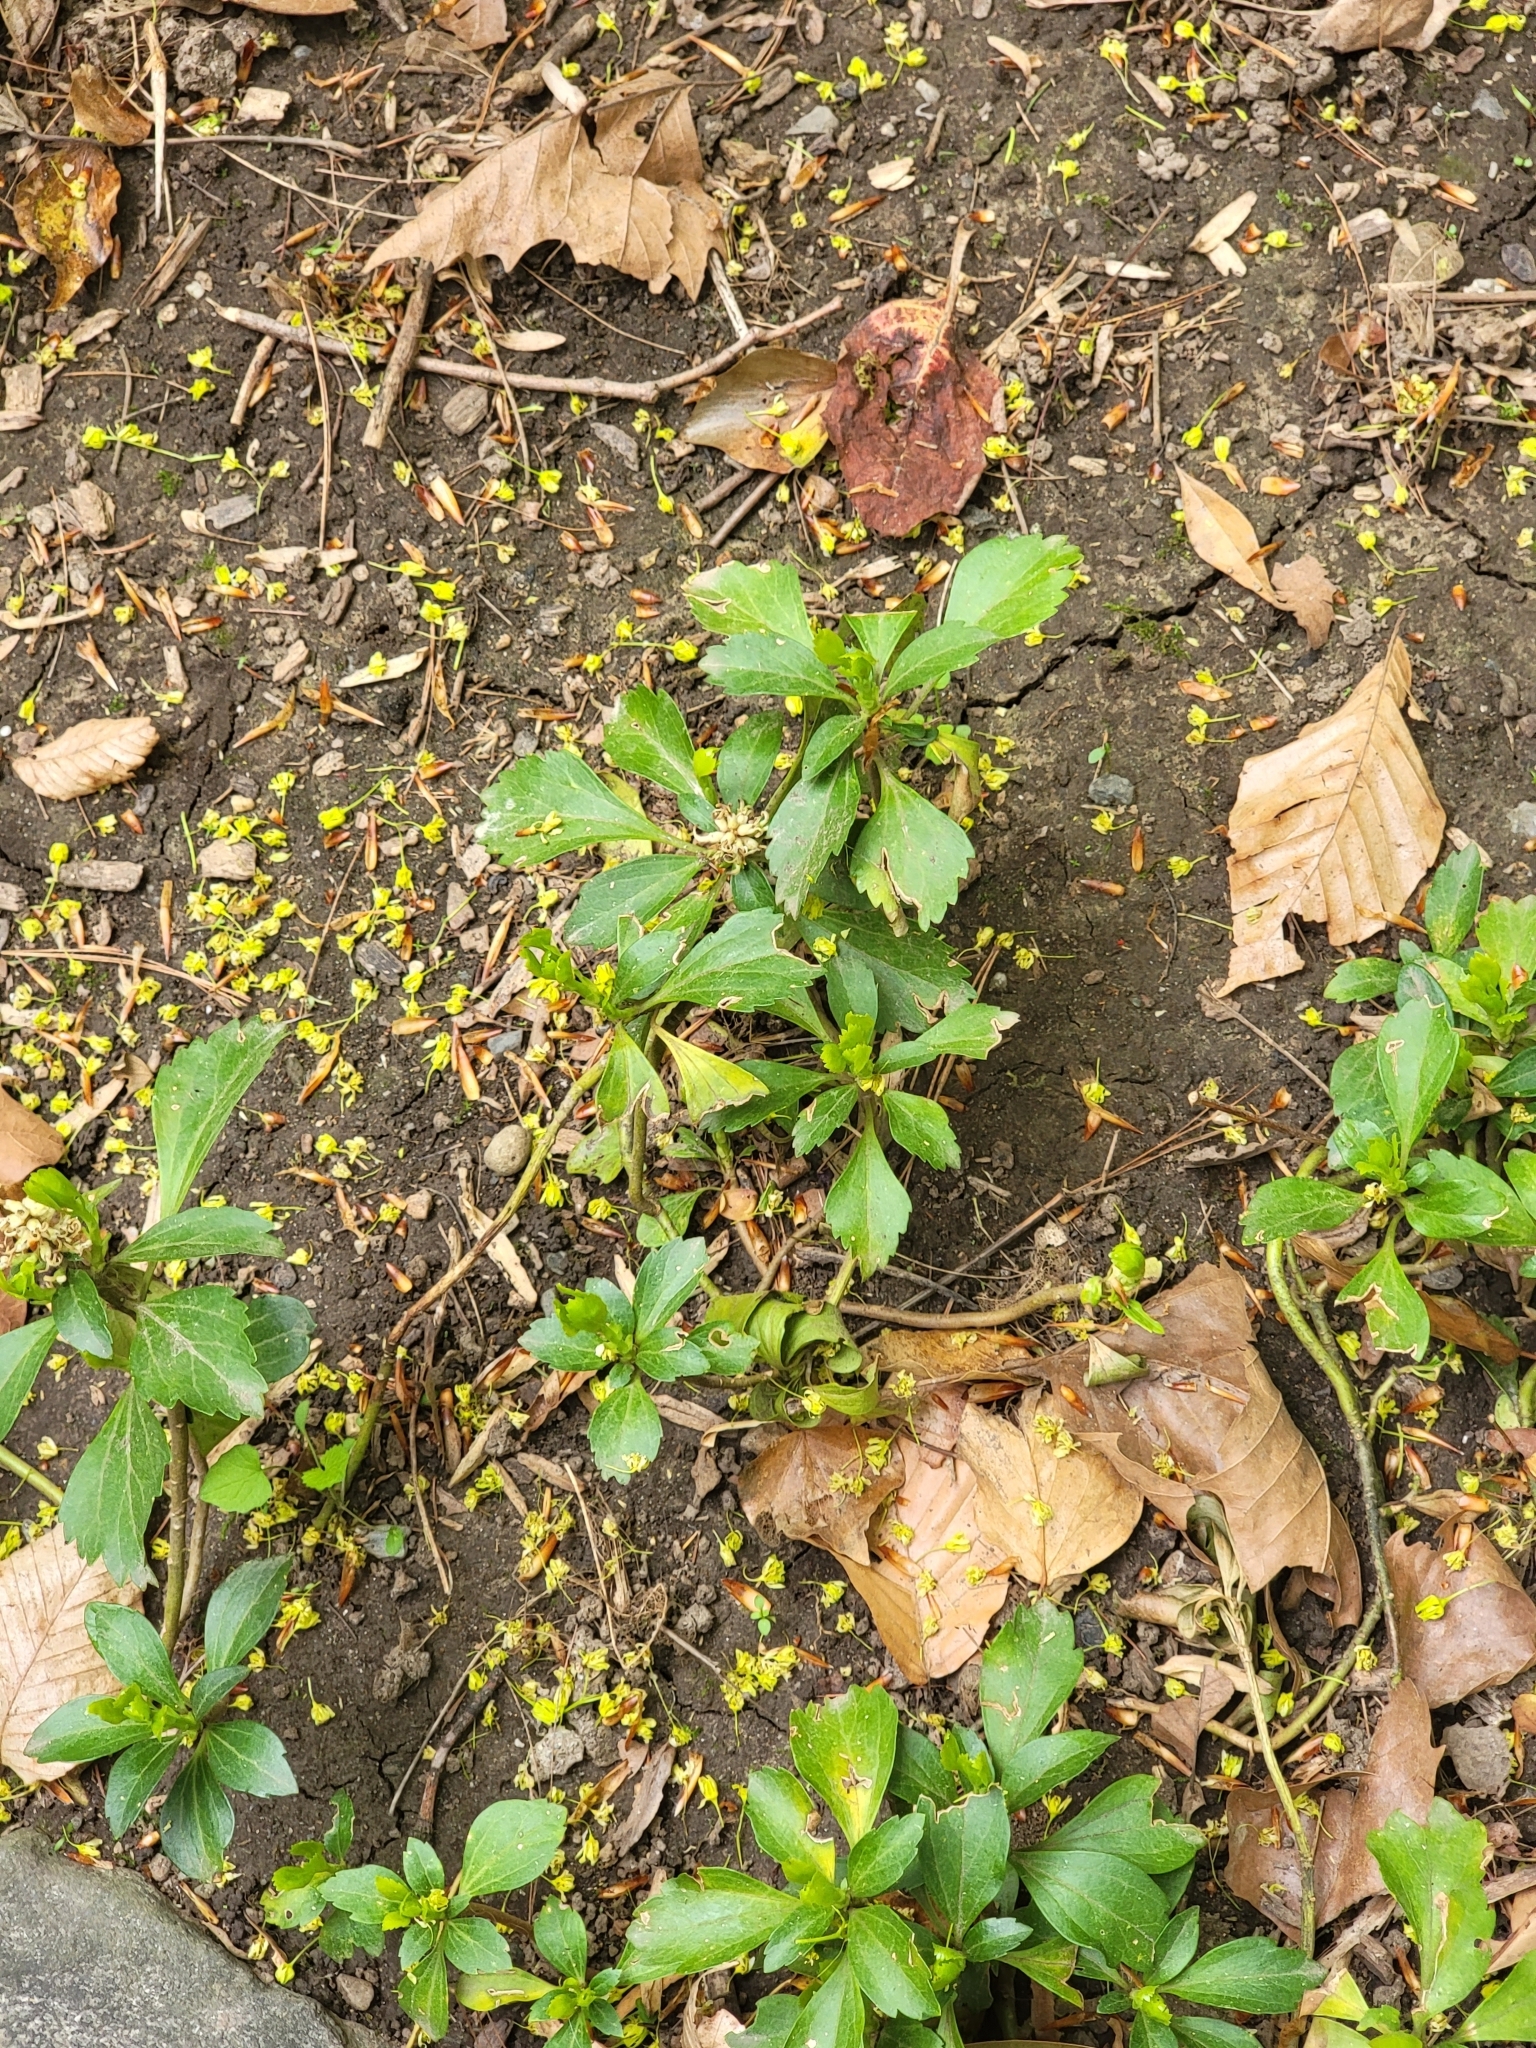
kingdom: Plantae
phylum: Tracheophyta
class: Magnoliopsida
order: Buxales
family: Buxaceae
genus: Pachysandra
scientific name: Pachysandra terminalis
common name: Japanese pachysandra
